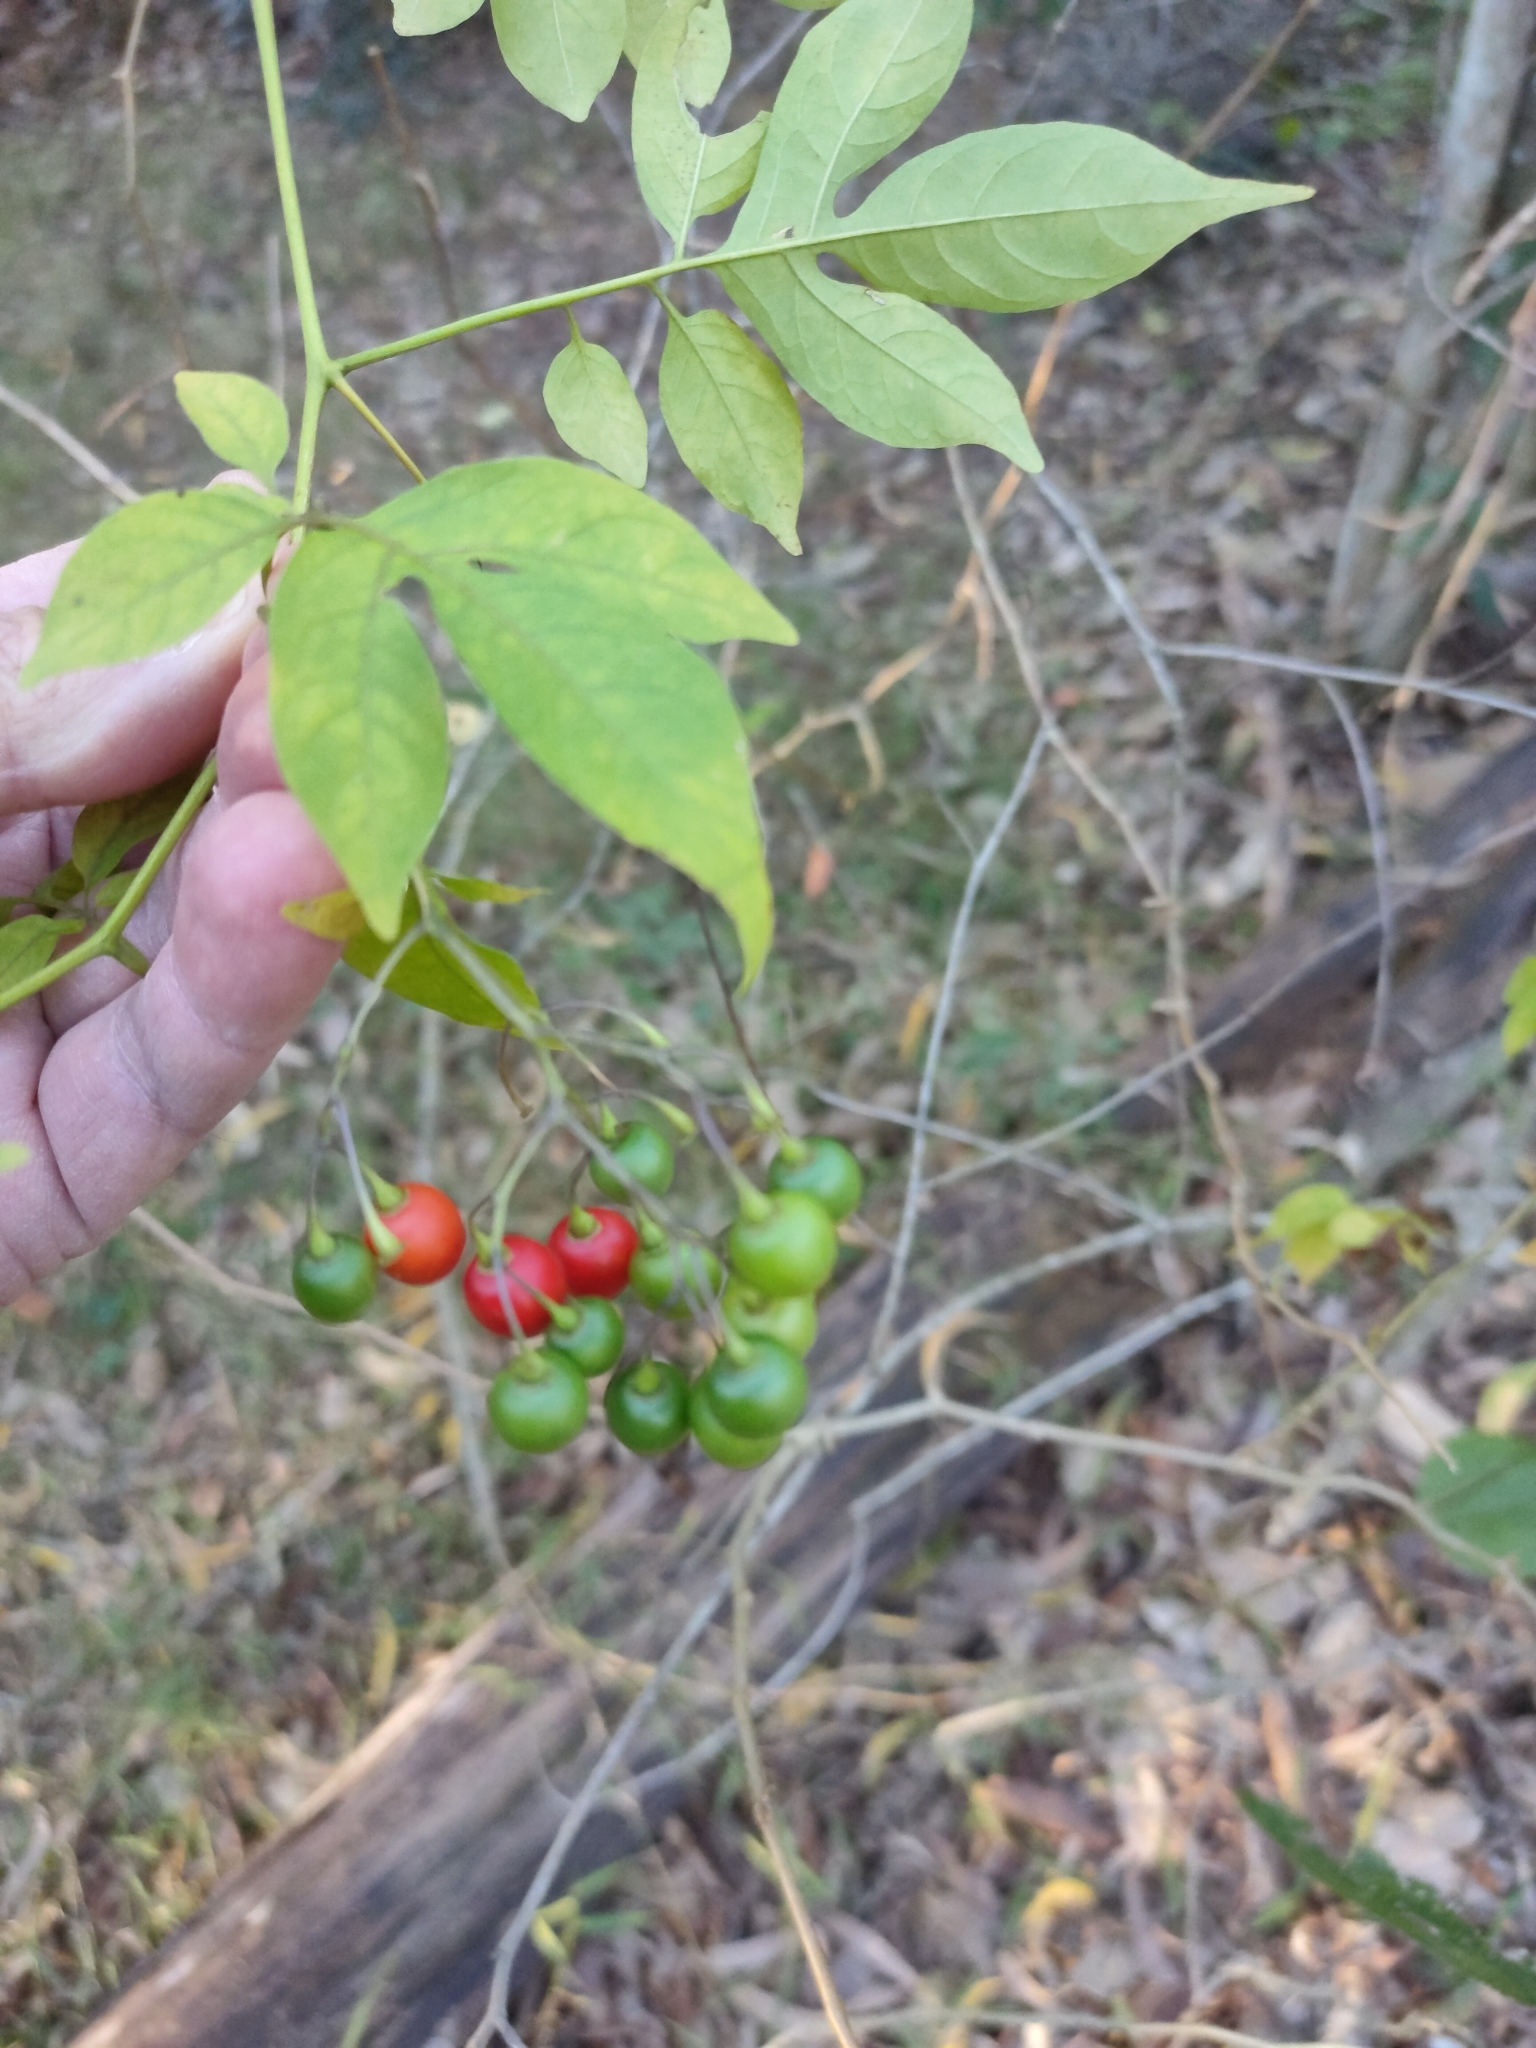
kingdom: Plantae
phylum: Tracheophyta
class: Magnoliopsida
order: Solanales
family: Solanaceae
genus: Solanum
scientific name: Solanum seaforthianum
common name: Brazilian nightshade
